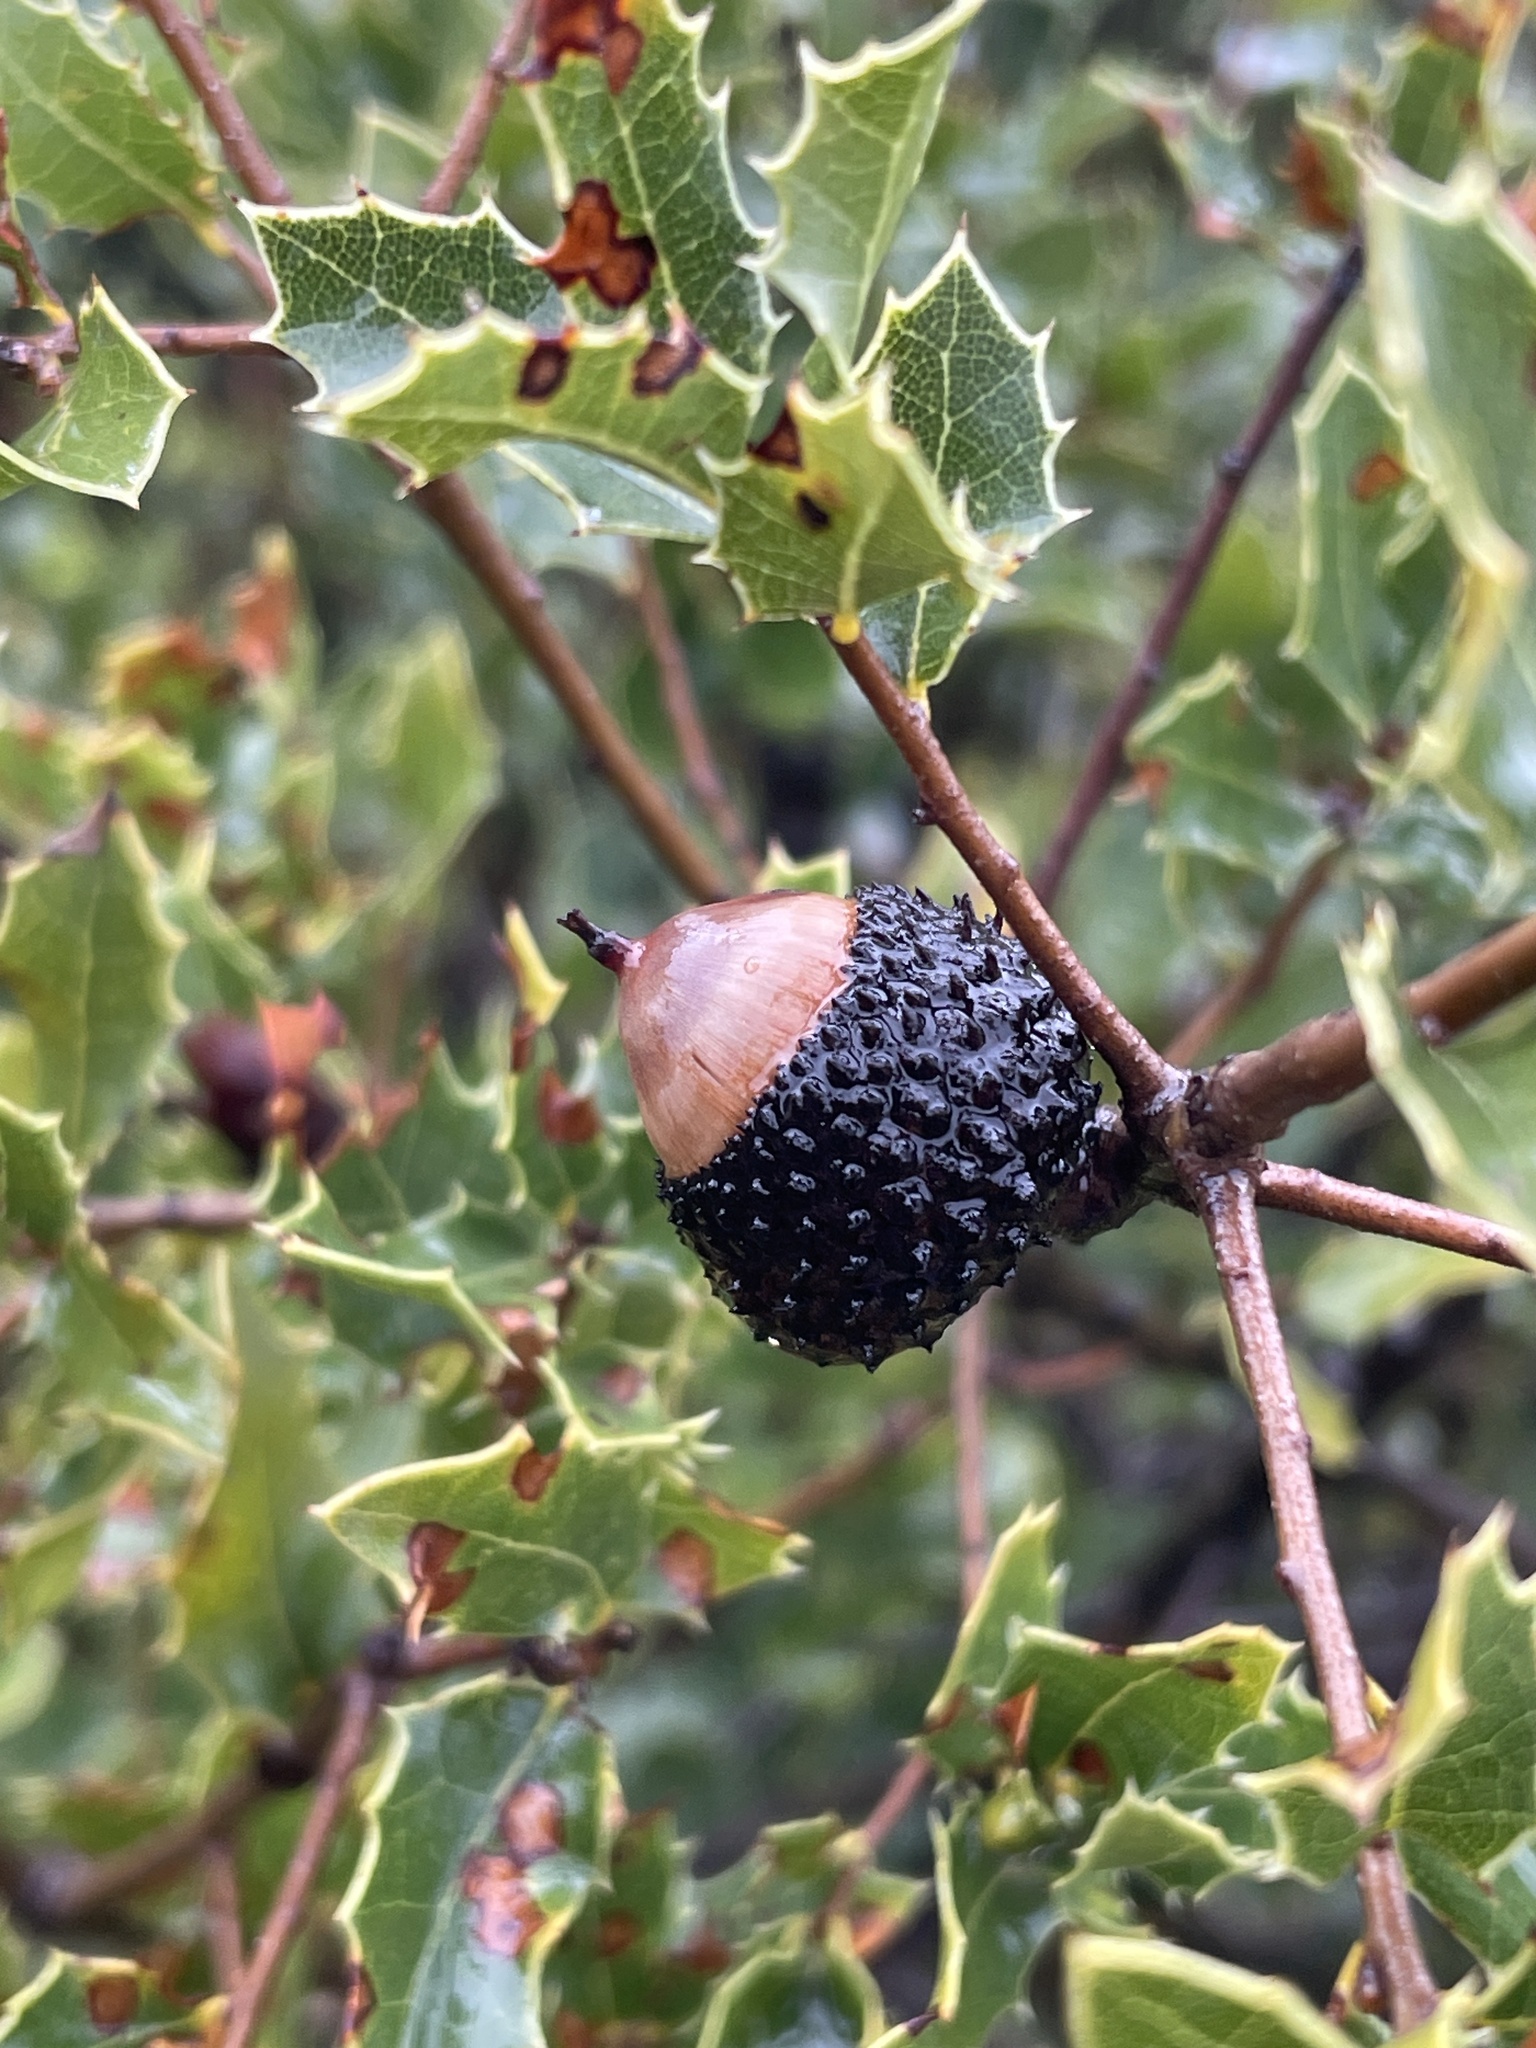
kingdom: Plantae
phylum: Tracheophyta
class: Magnoliopsida
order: Fagales
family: Fagaceae
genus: Quercus
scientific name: Quercus coccifera
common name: Kermes oak
